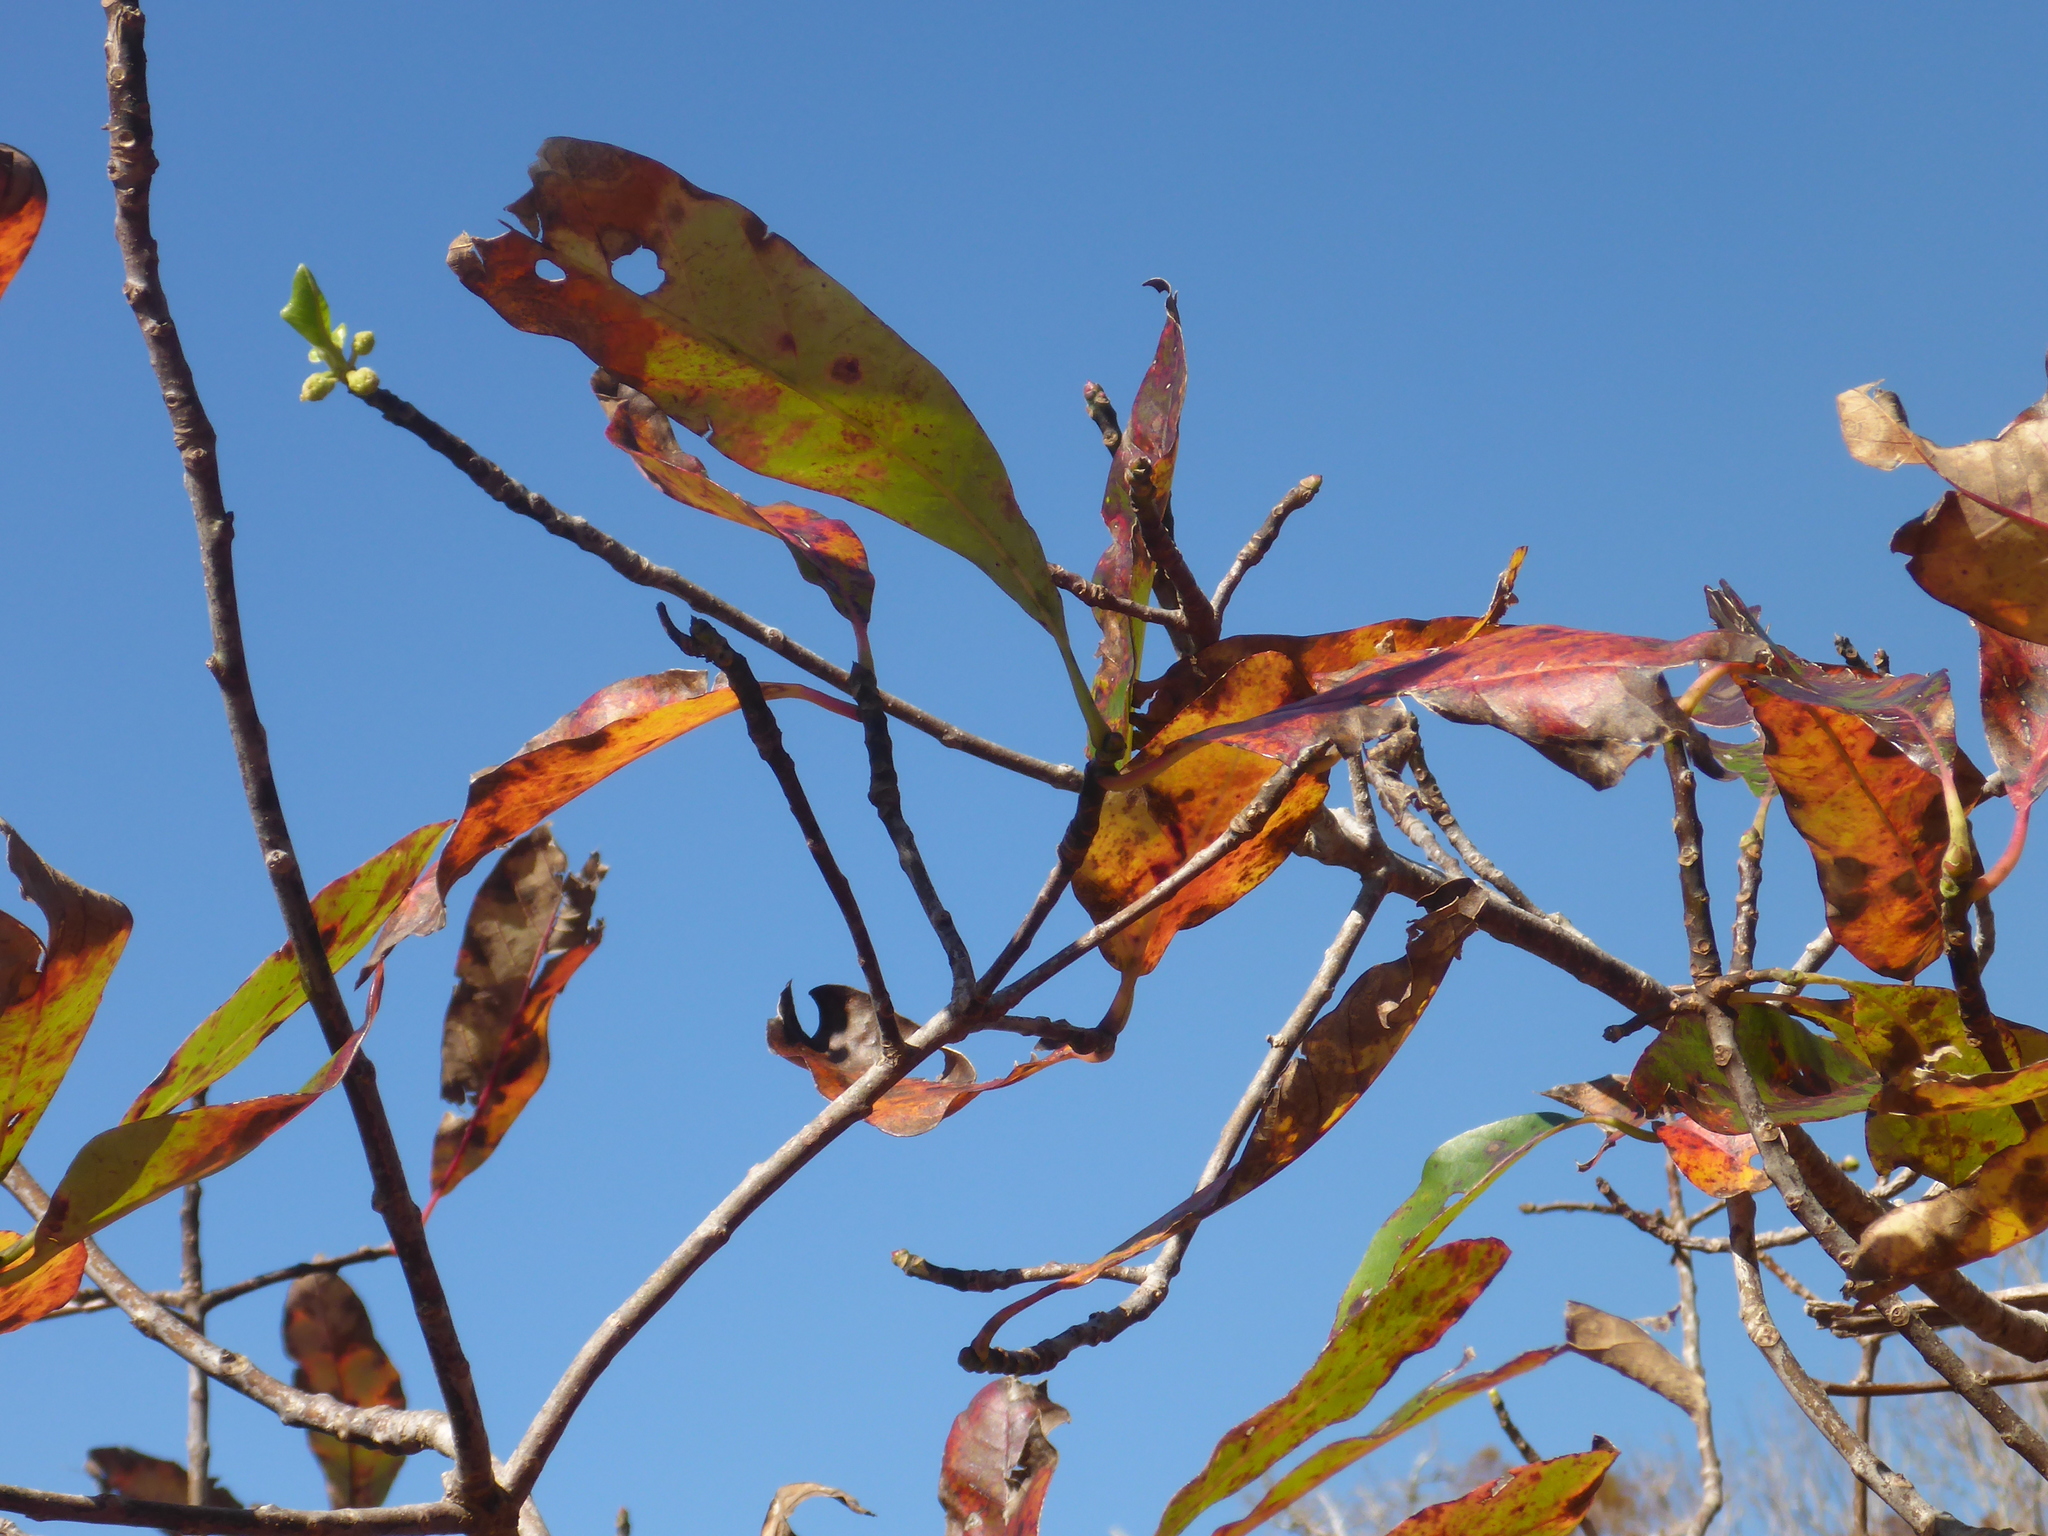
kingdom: Plantae
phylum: Tracheophyta
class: Magnoliopsida
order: Cornales
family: Nyssaceae
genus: Nyssa
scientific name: Nyssa ogeche
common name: Ogeechee tupelo
